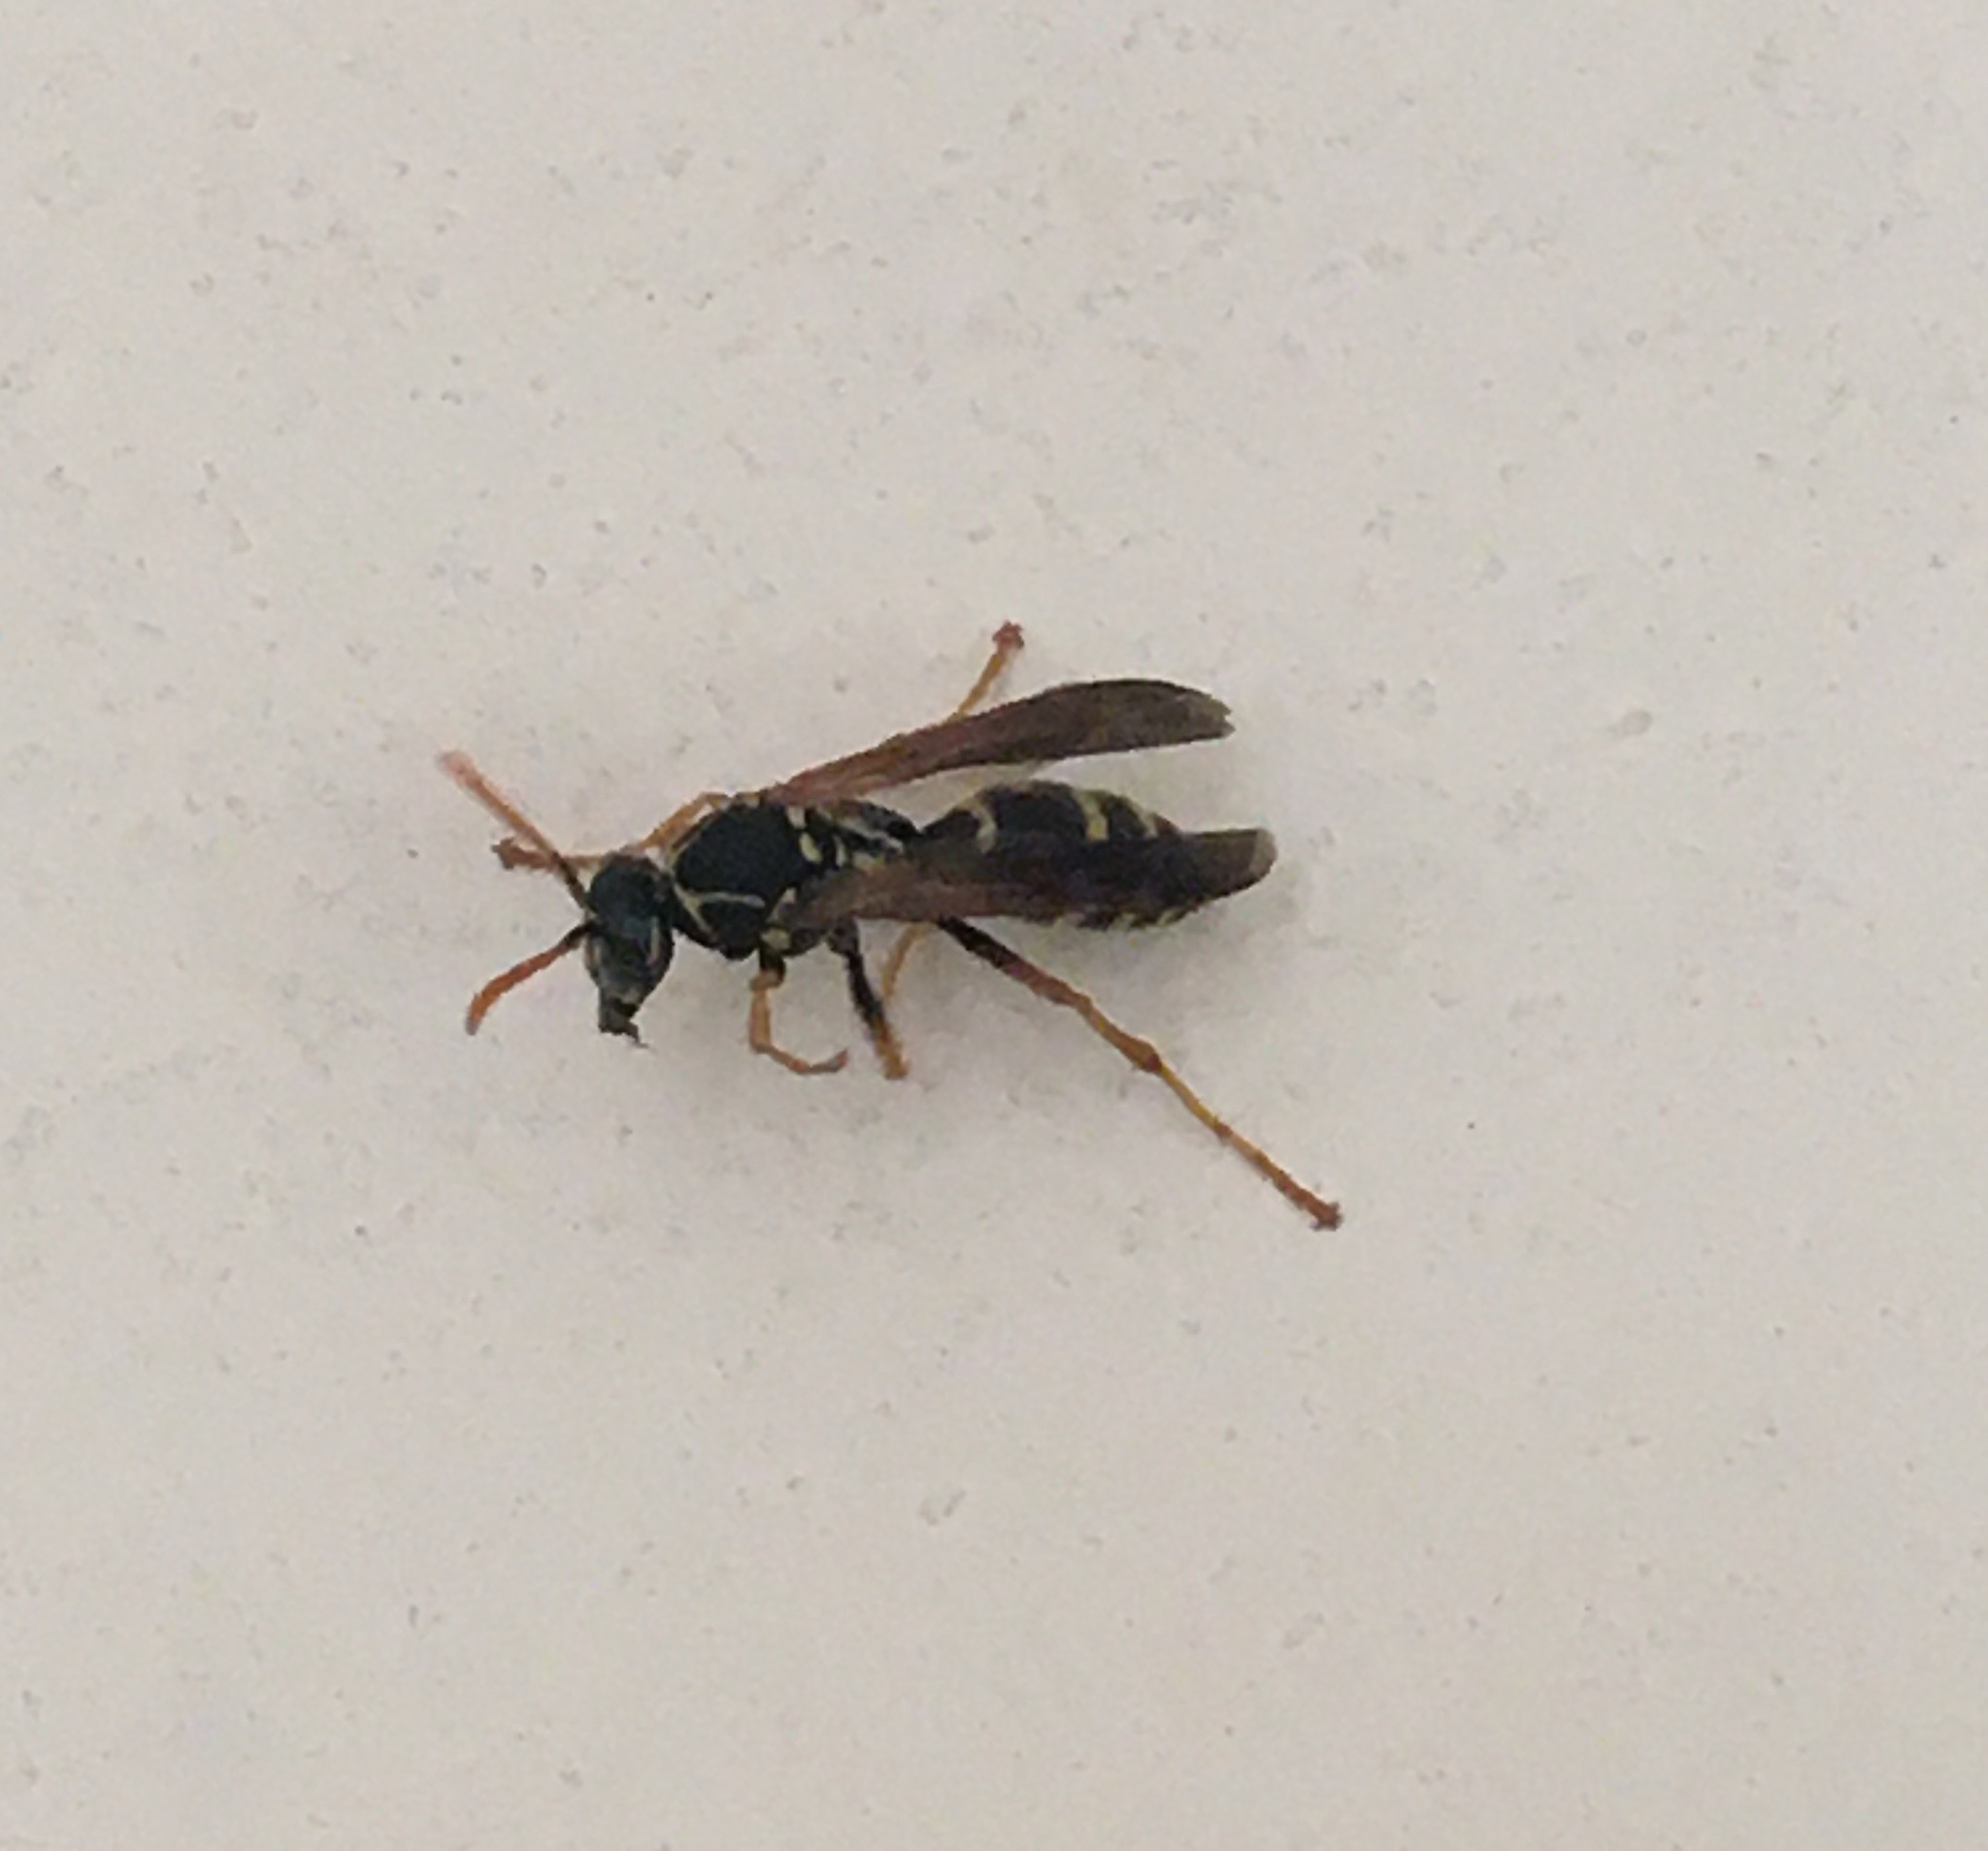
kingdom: Animalia
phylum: Arthropoda
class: Insecta
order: Hymenoptera
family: Eumenidae
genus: Polistes
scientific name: Polistes chinensis
